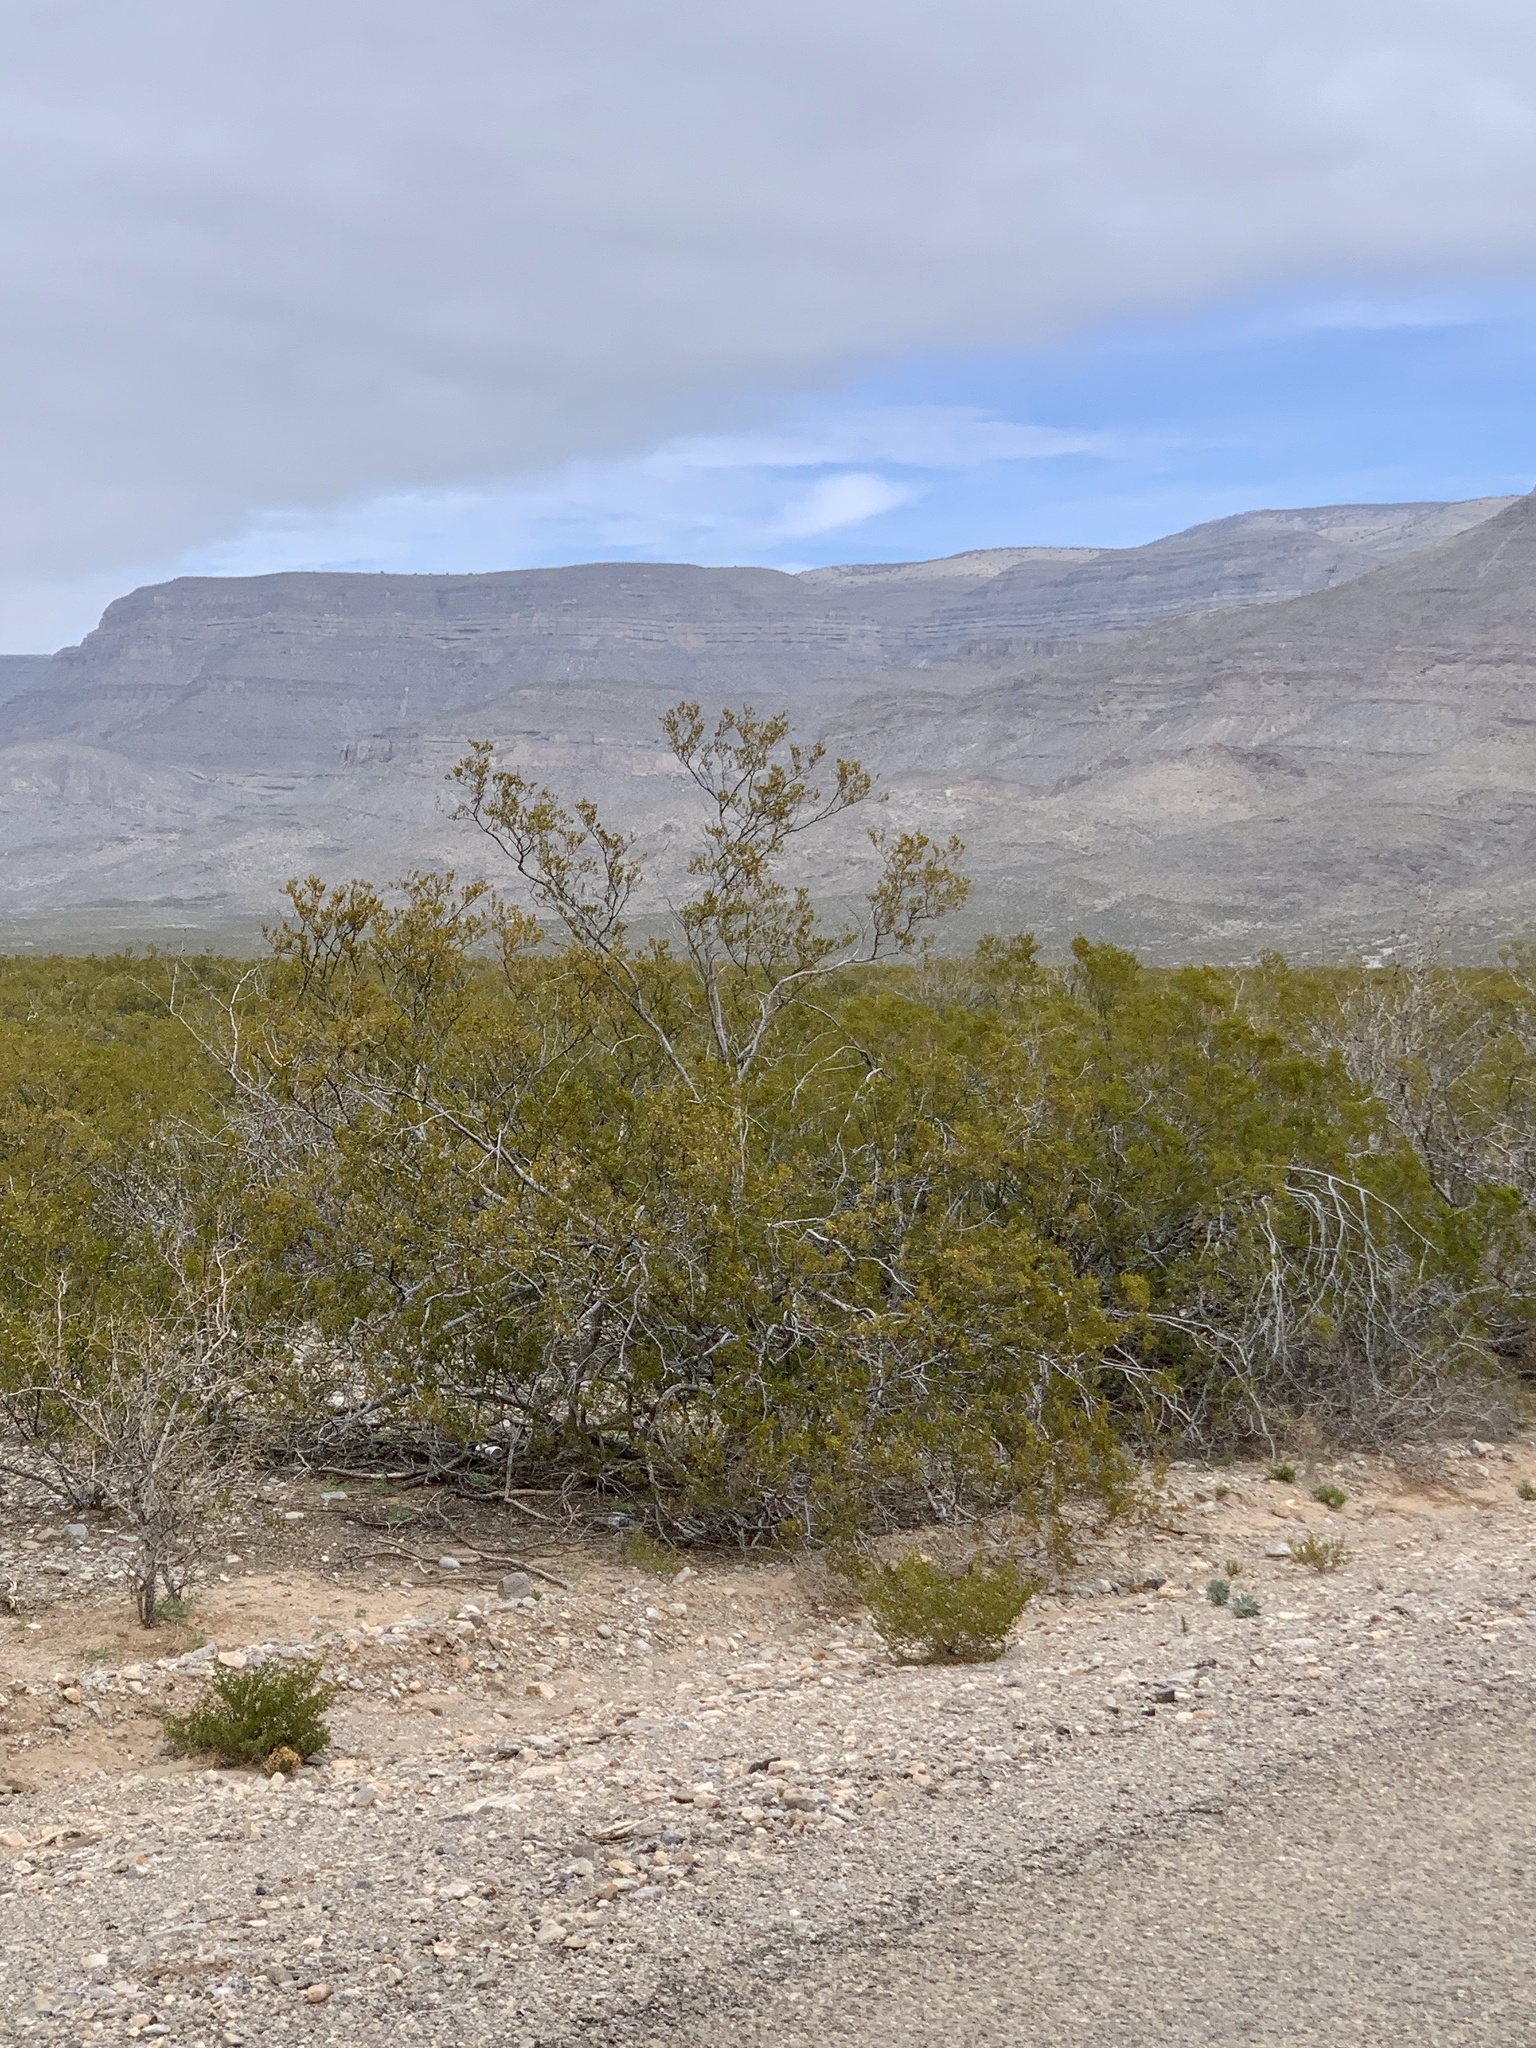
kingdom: Plantae
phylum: Tracheophyta
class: Magnoliopsida
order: Zygophyllales
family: Zygophyllaceae
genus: Larrea
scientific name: Larrea tridentata
